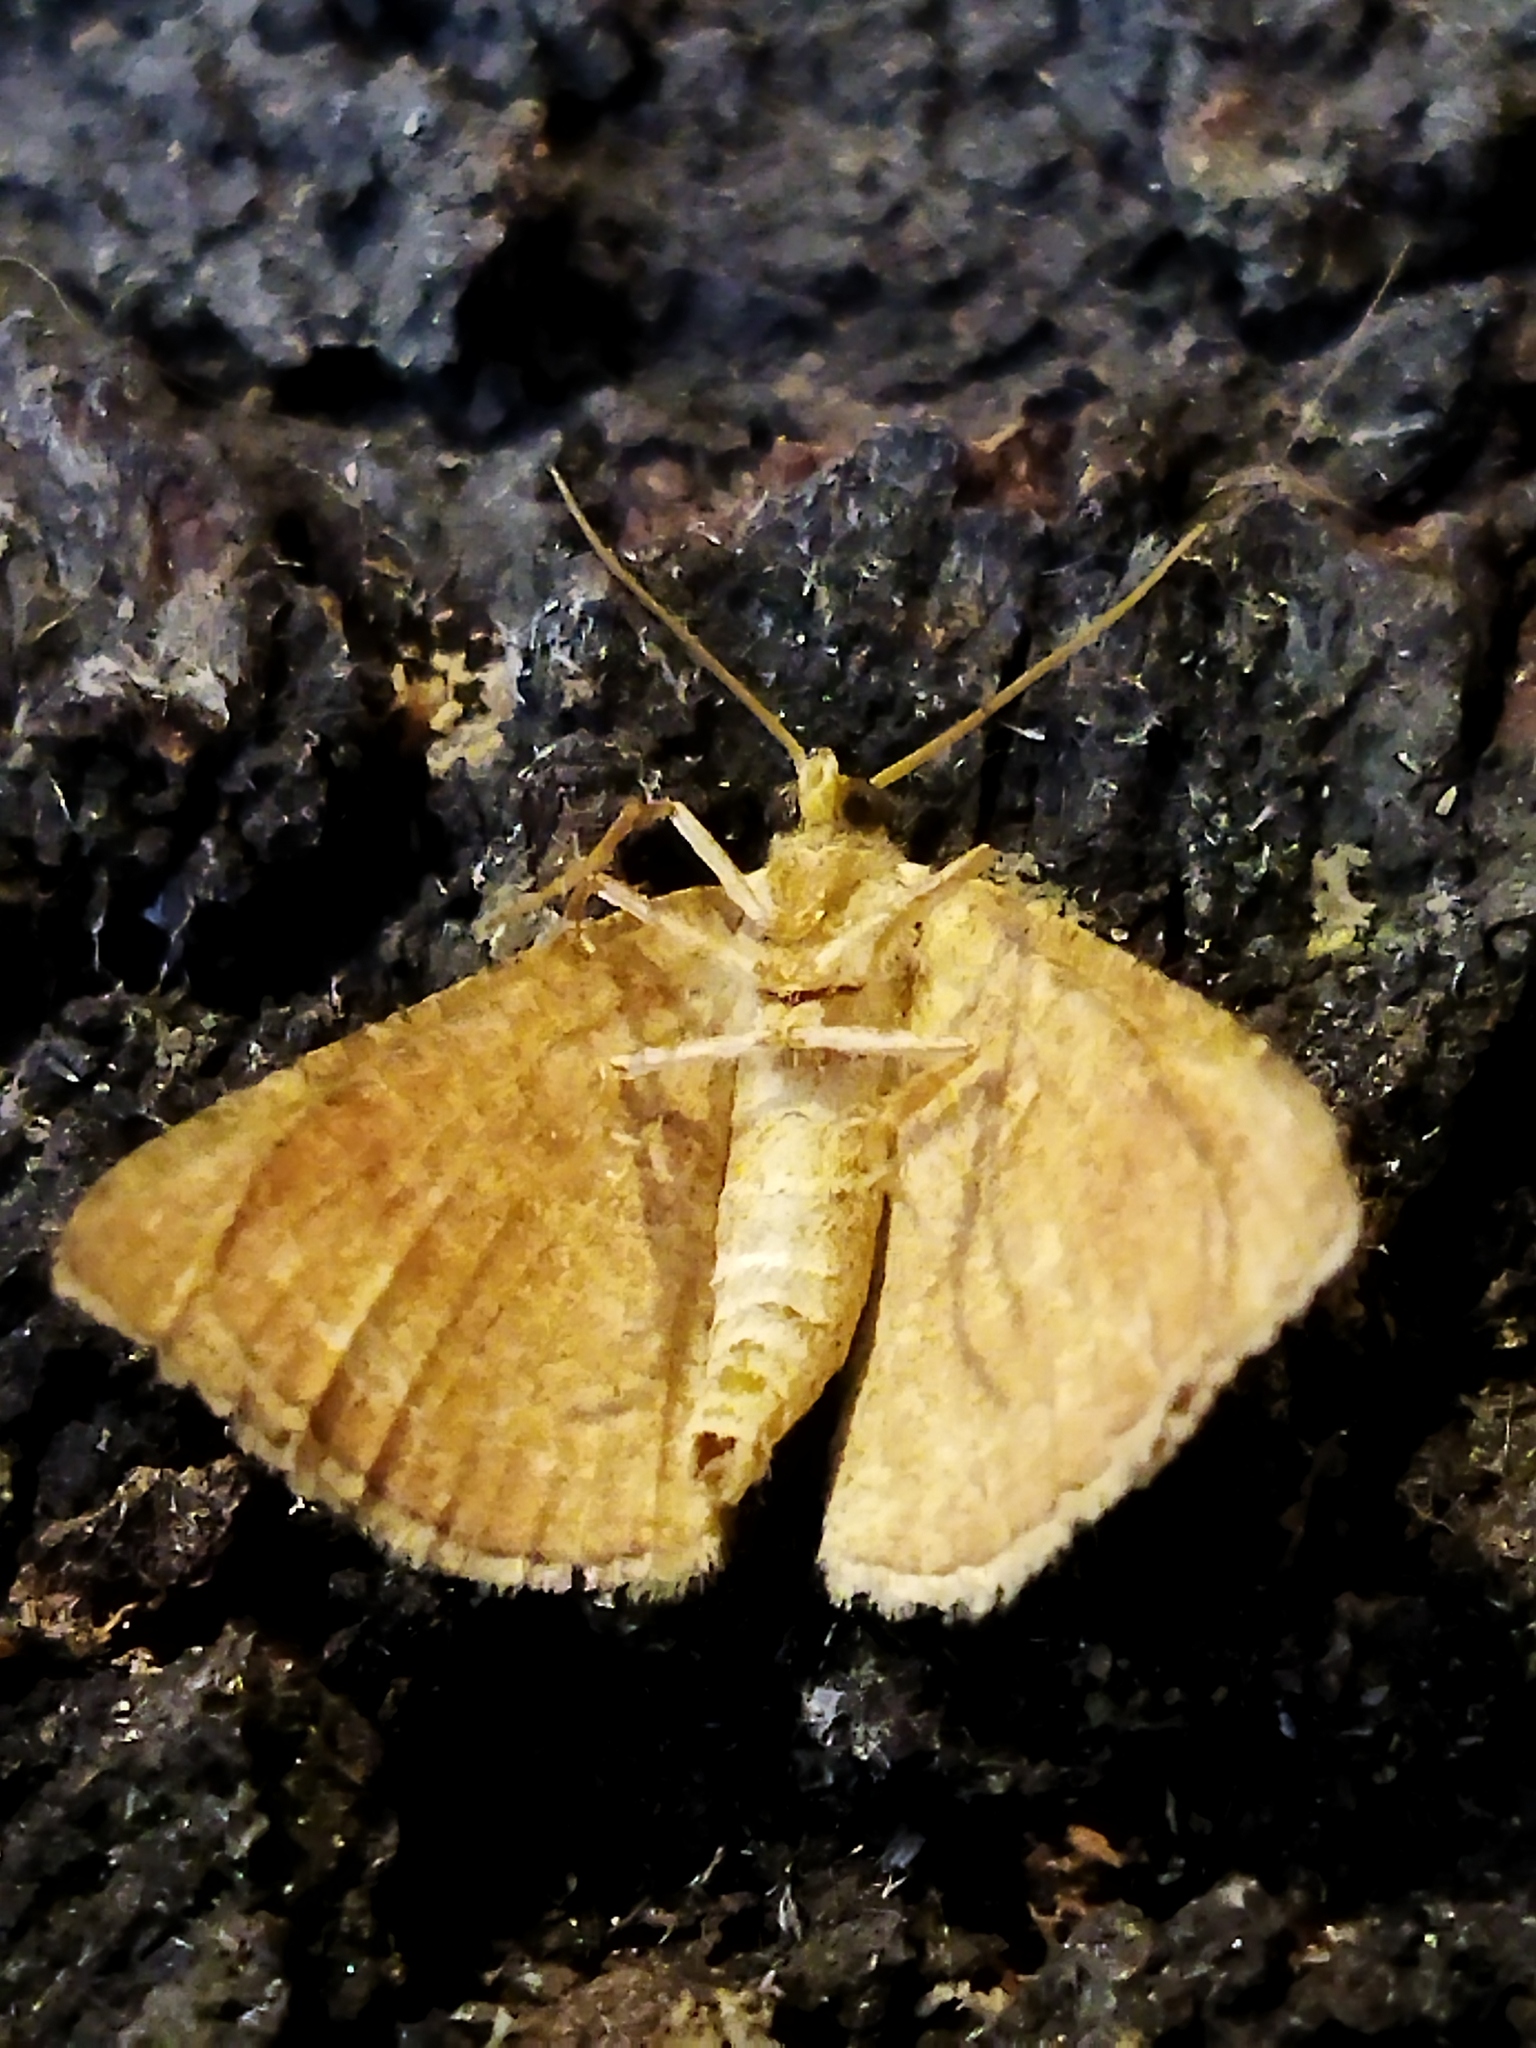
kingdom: Animalia
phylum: Arthropoda
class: Insecta
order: Lepidoptera
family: Geometridae
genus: Aplasta
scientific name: Aplasta ononaria
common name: Rest harrow
